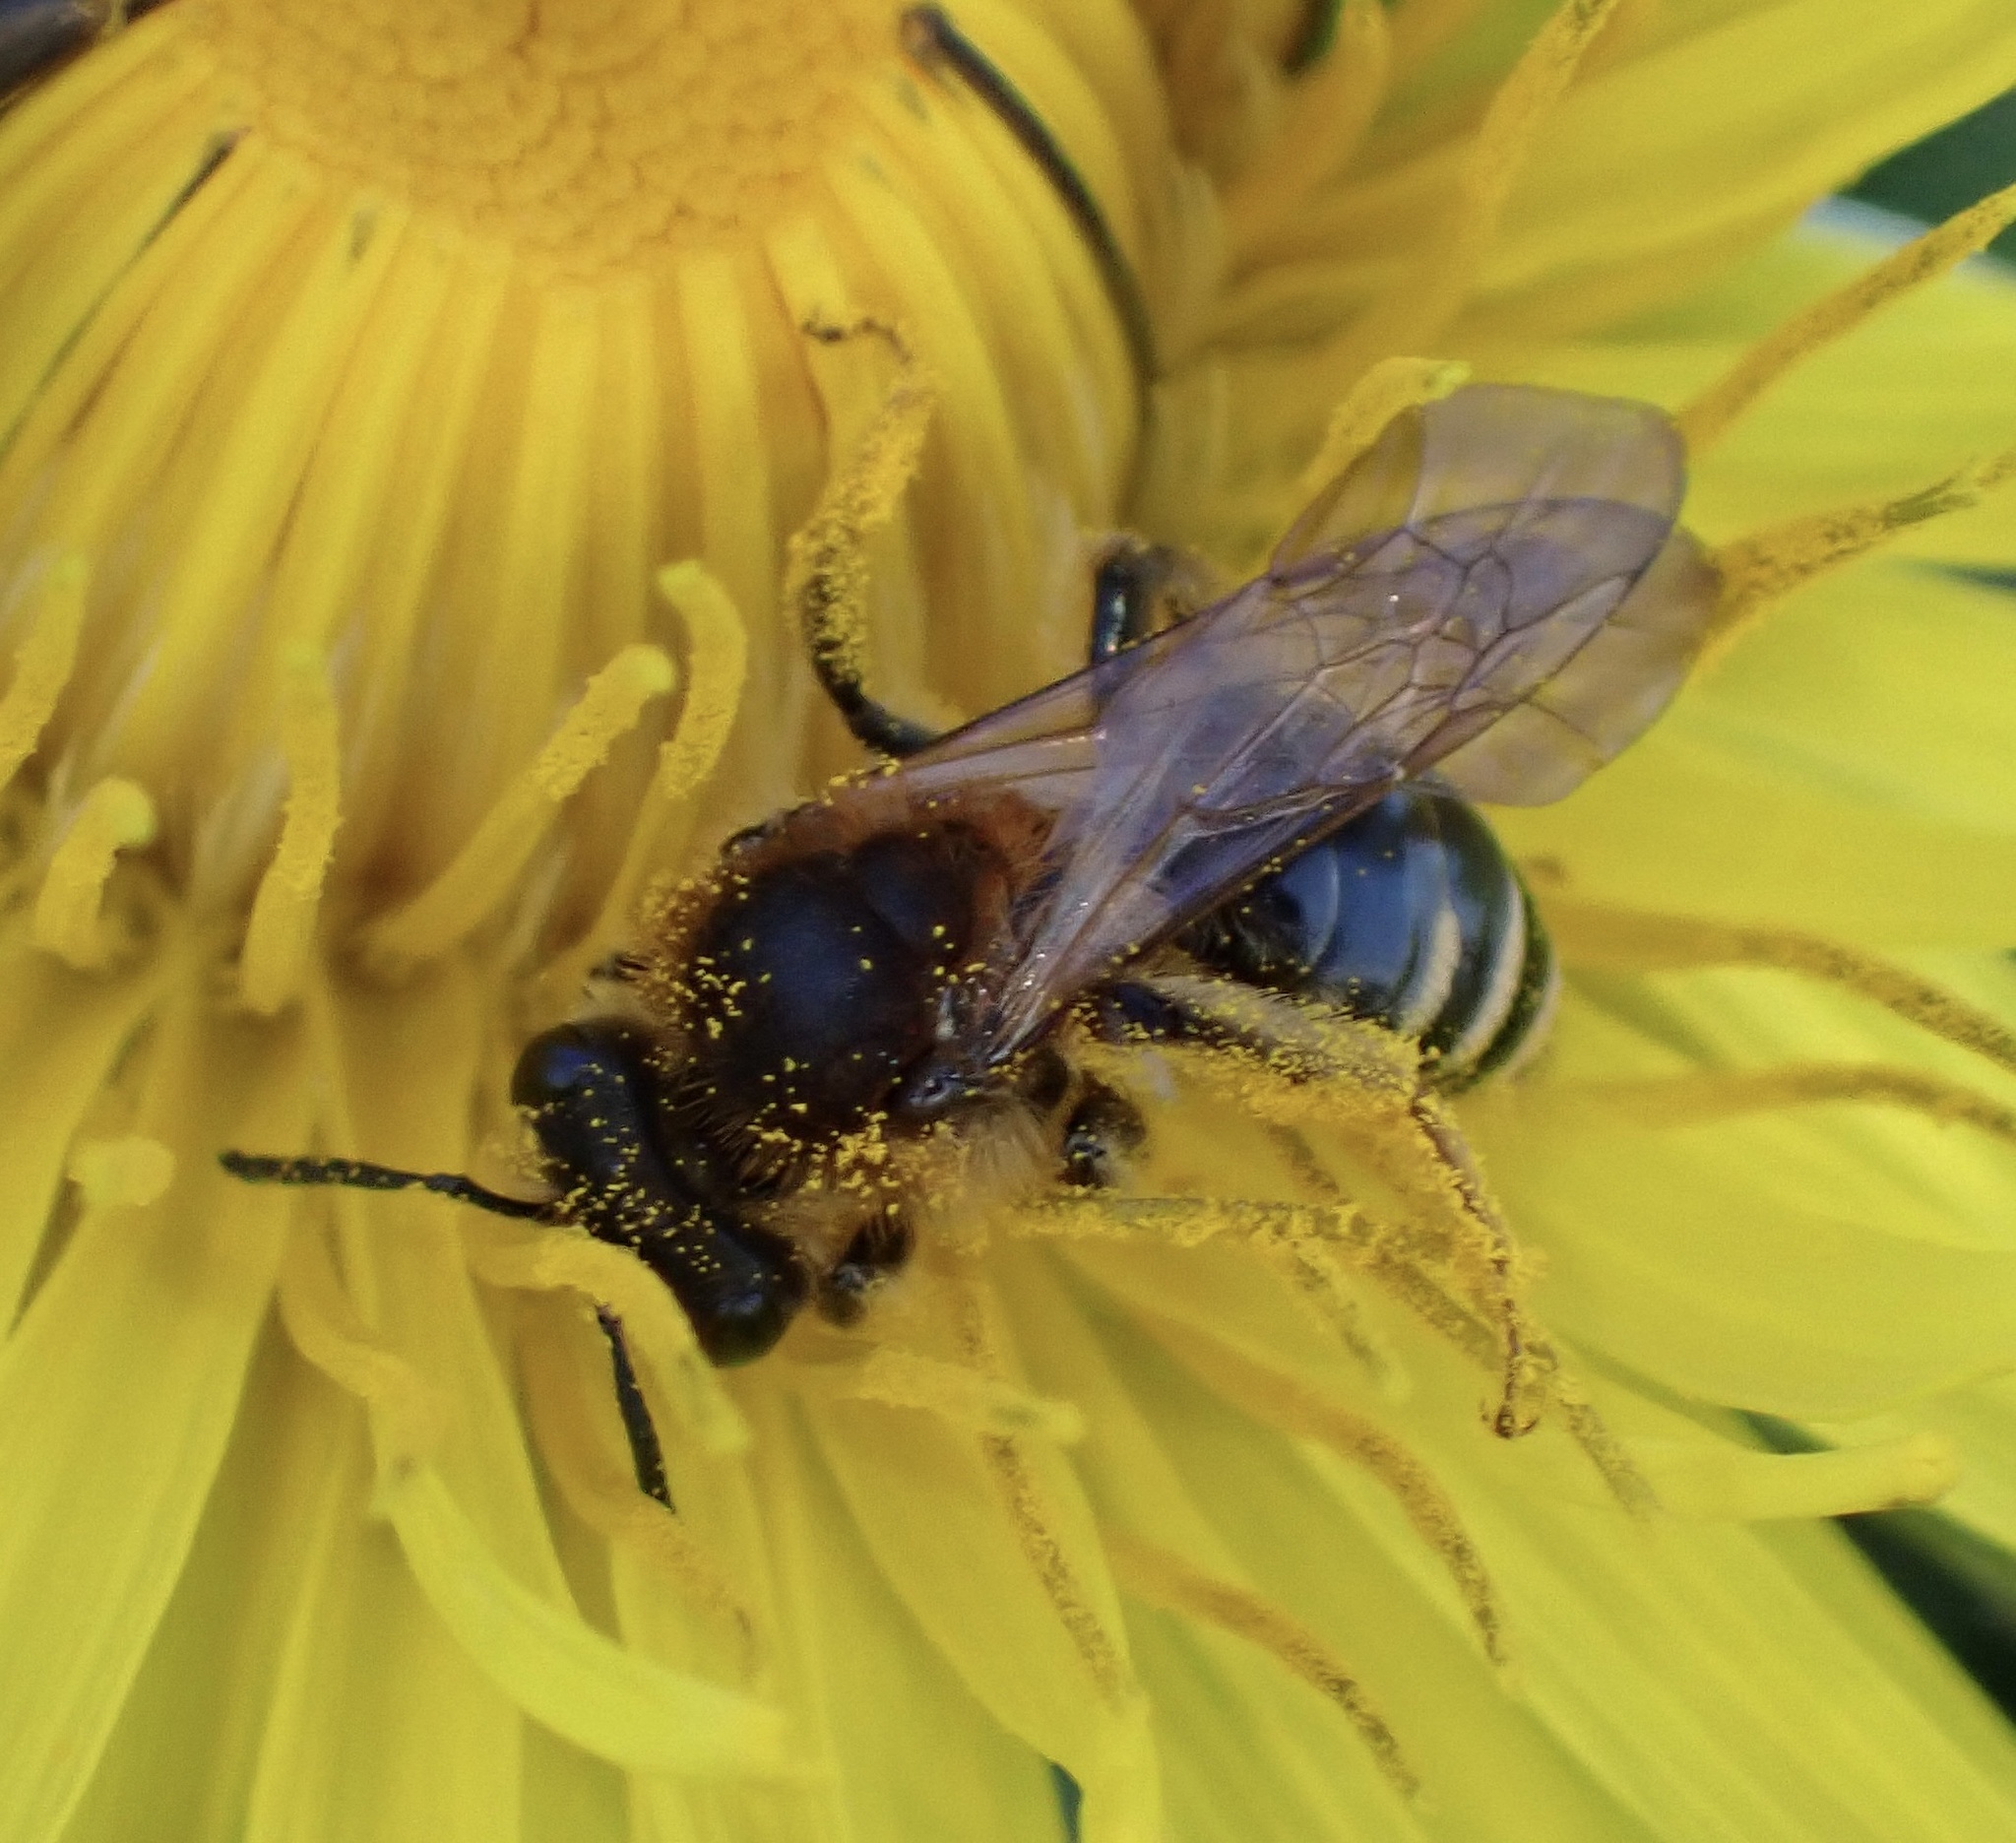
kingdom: Animalia
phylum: Arthropoda
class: Insecta
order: Hymenoptera
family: Andrenidae
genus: Andrena
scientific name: Andrena dorsata
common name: Short-fringed mining bee
